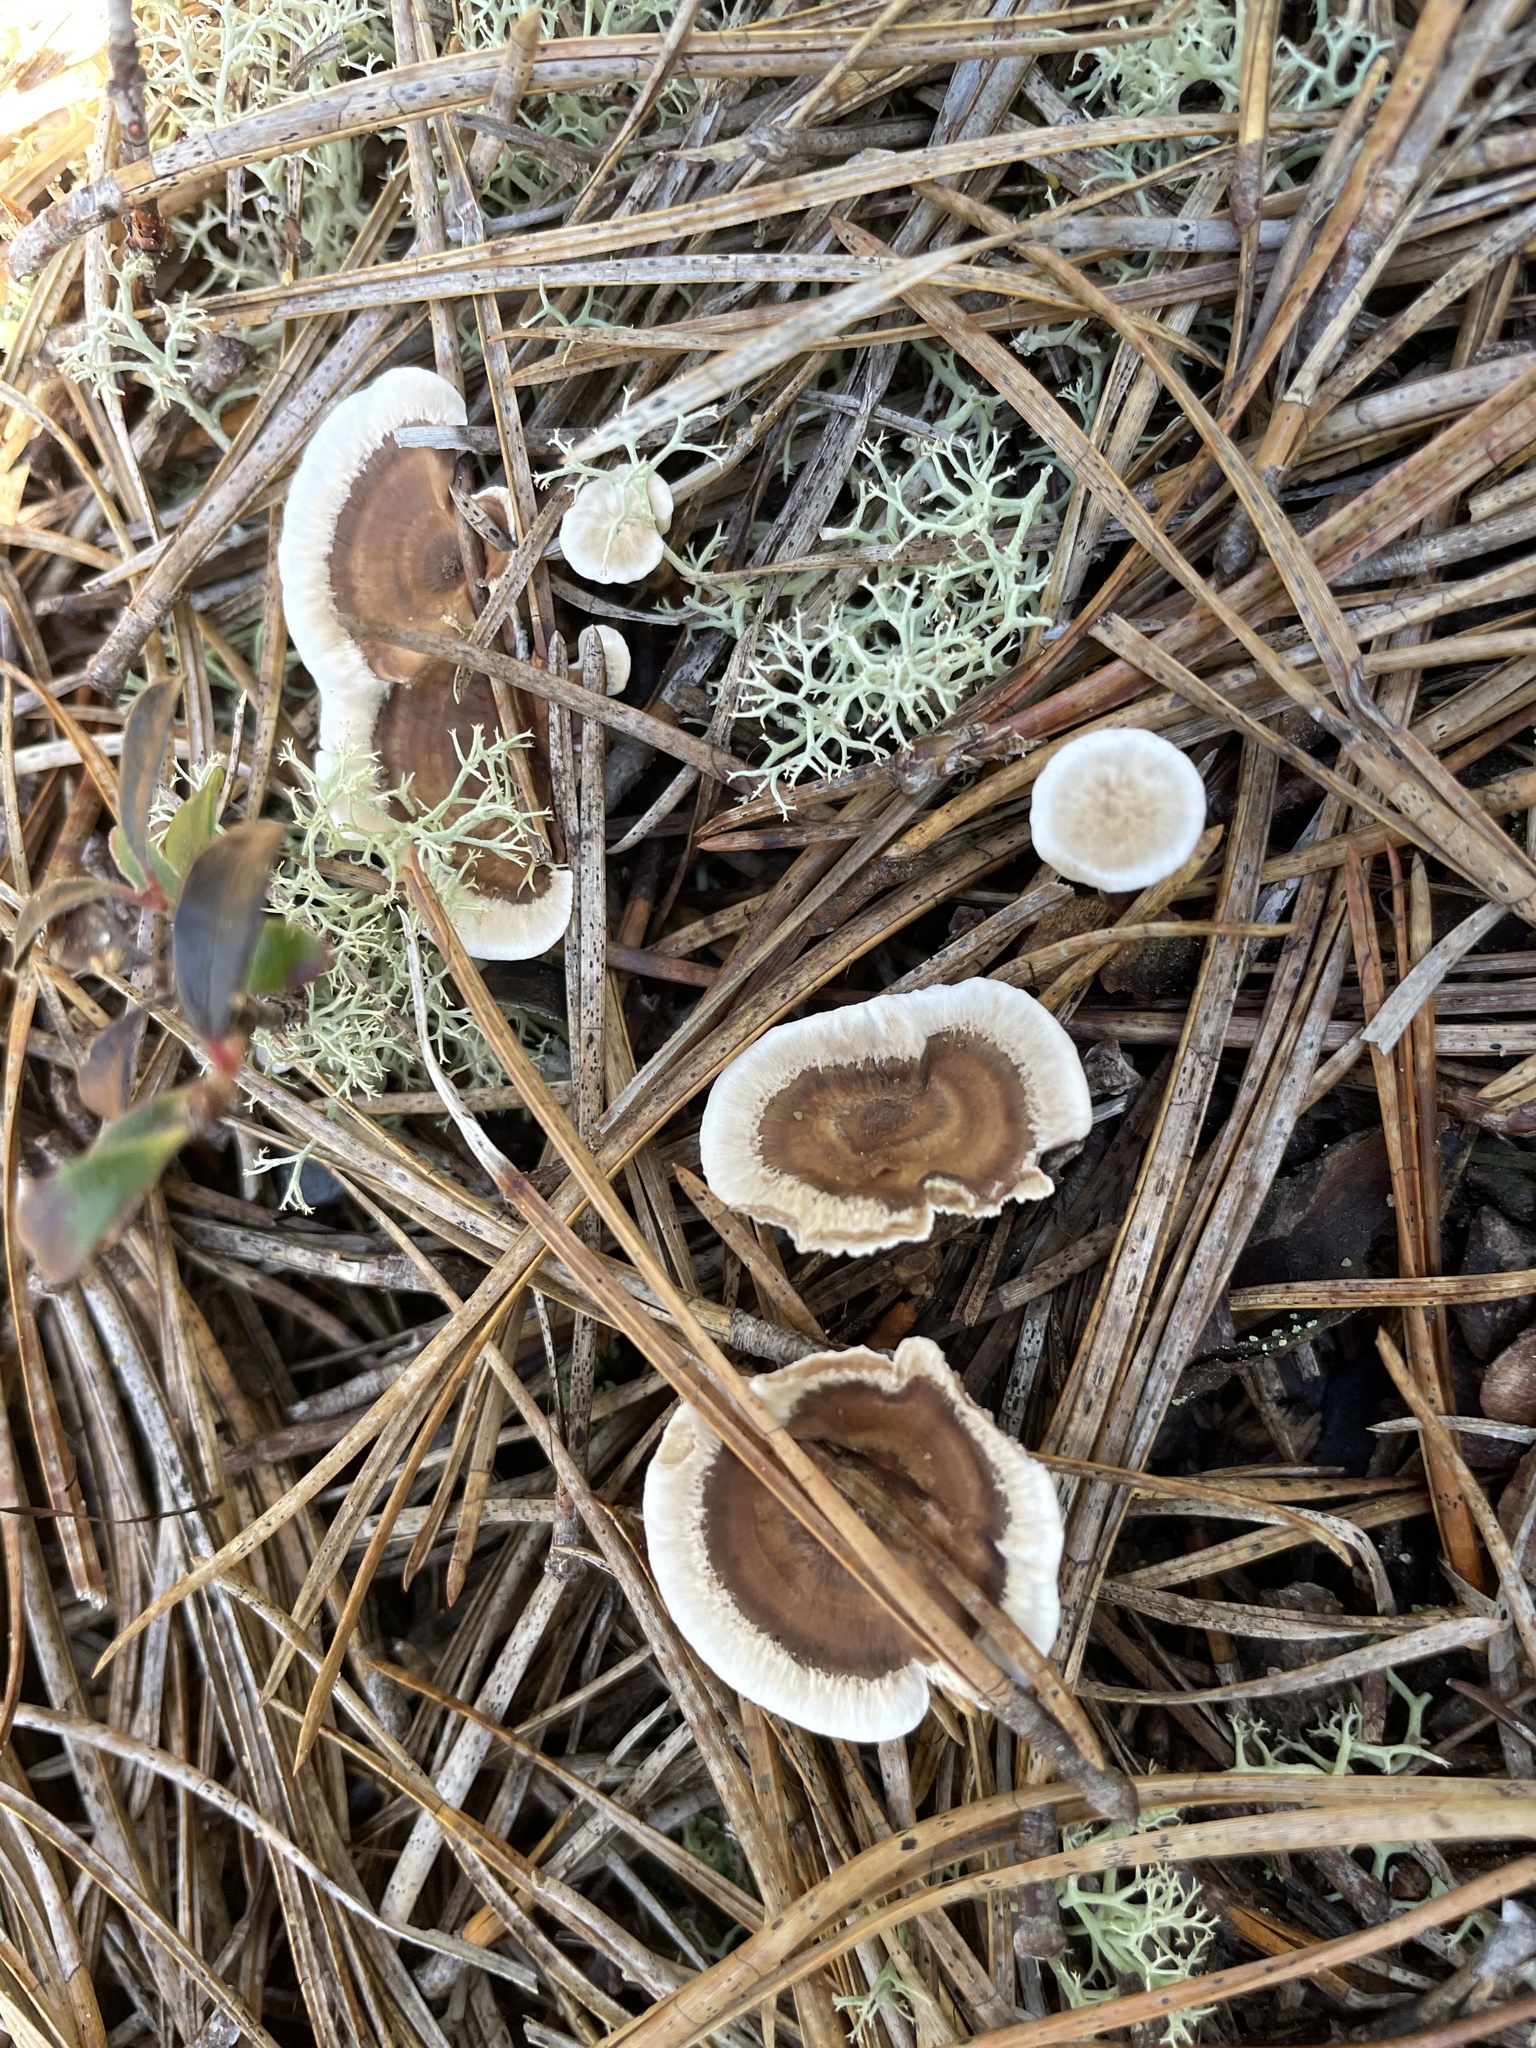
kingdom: Fungi
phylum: Basidiomycota
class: Agaricomycetes
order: Thelephorales
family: Thelephoraceae
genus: Phellodon
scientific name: Phellodon tomentosus
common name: Woolly tooth
